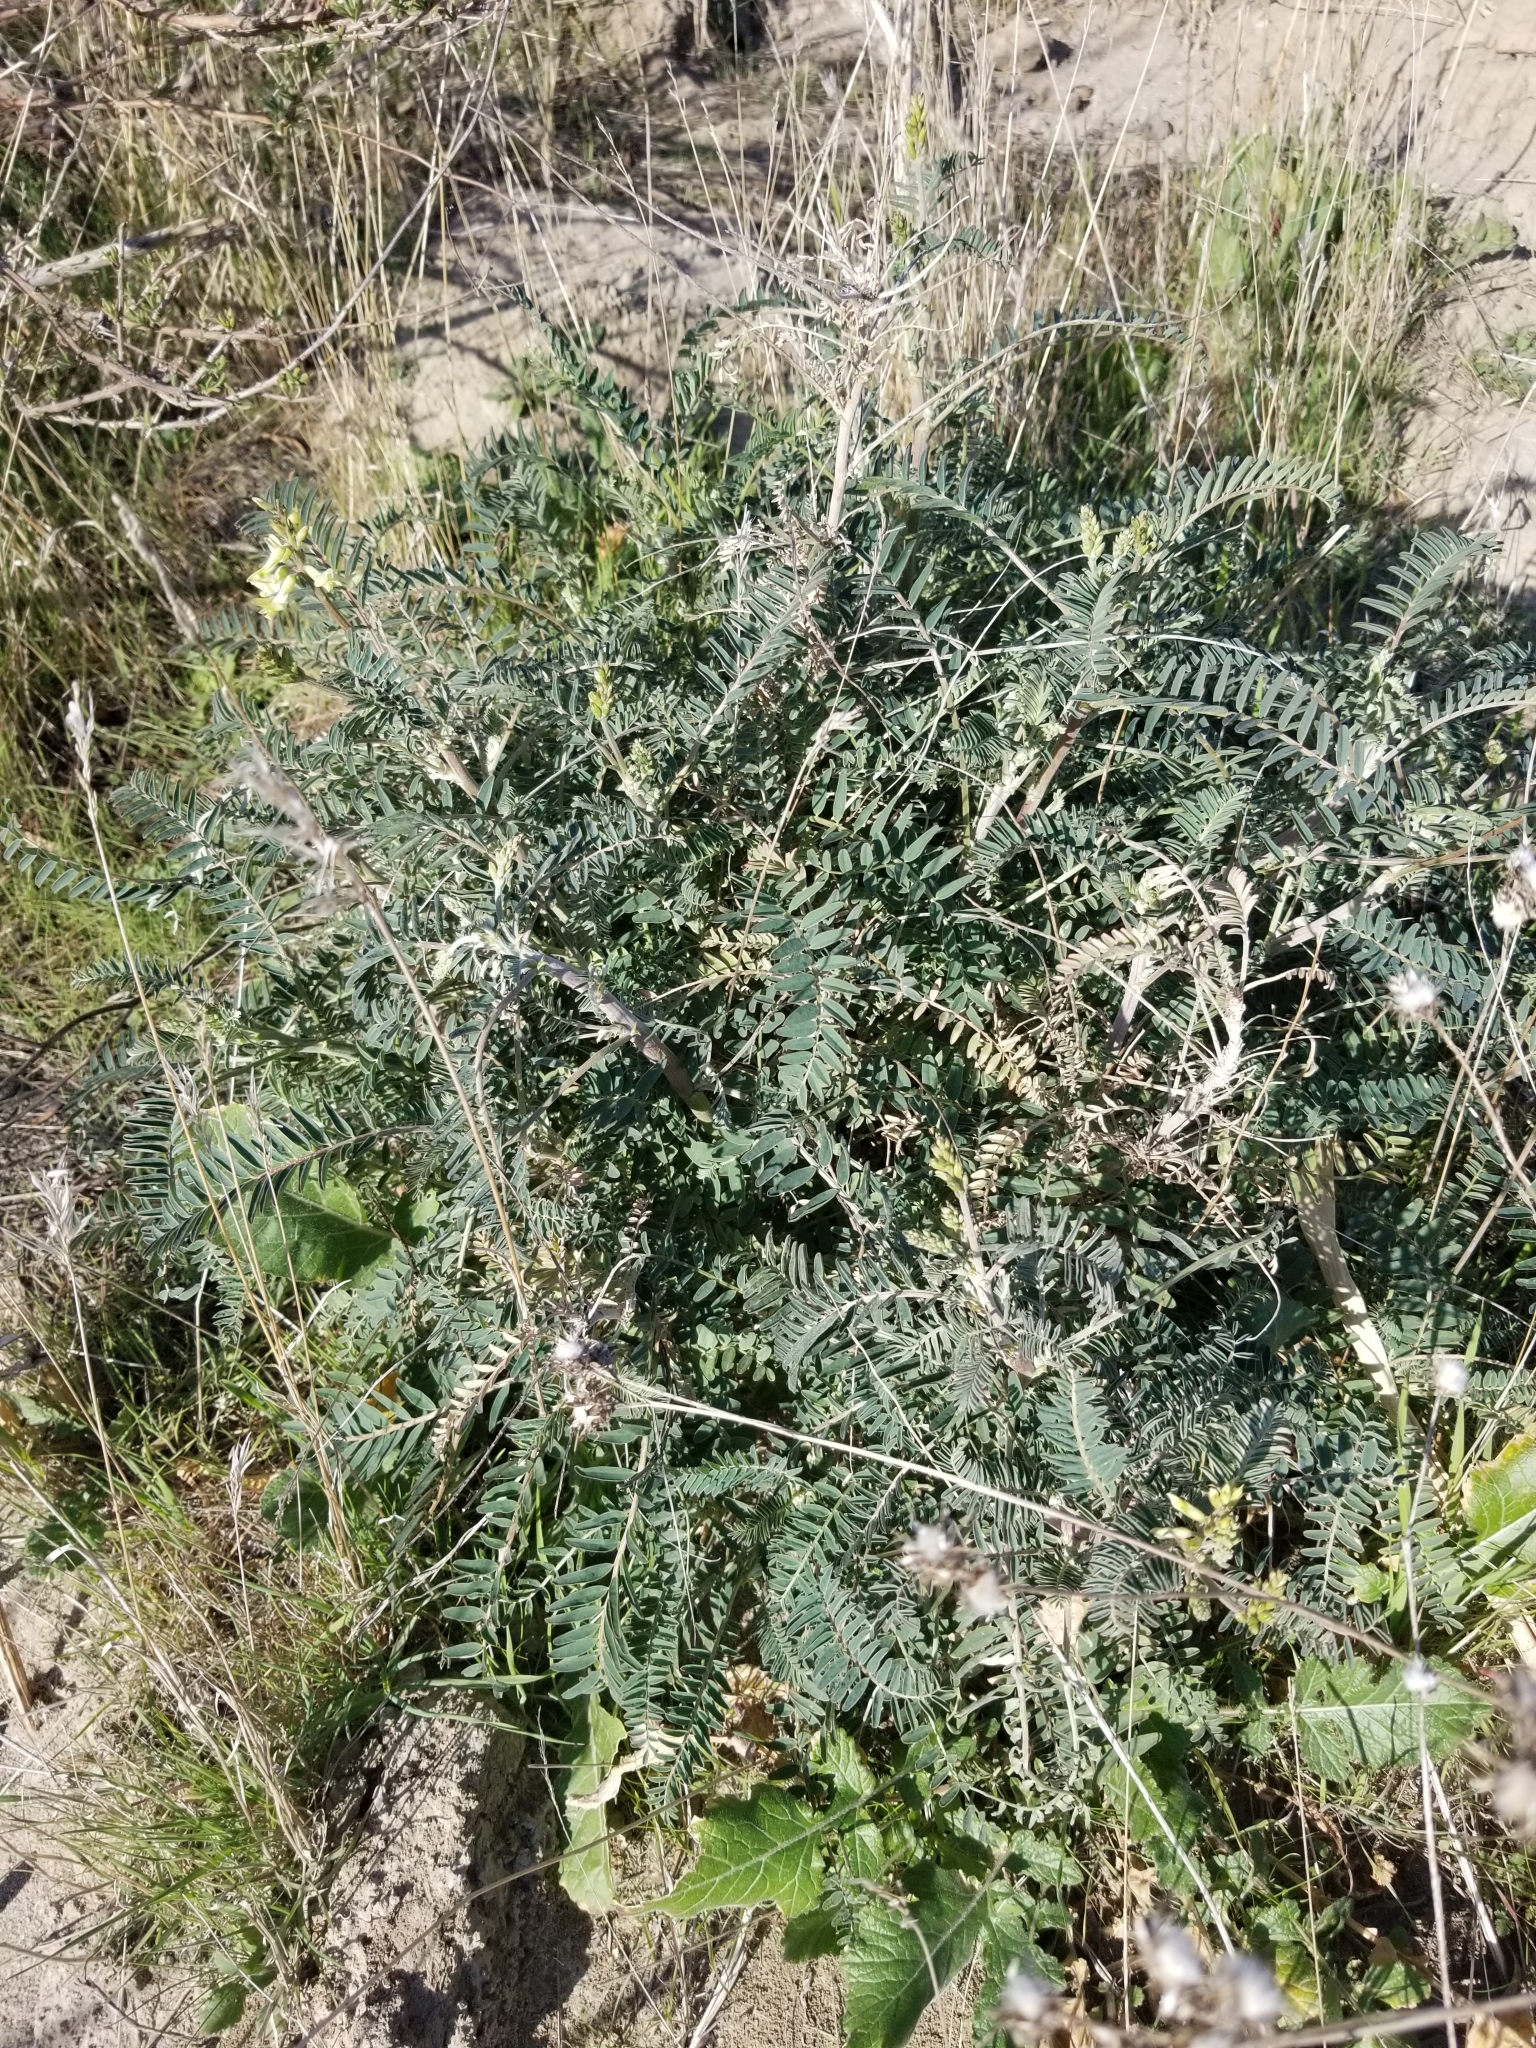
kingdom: Plantae
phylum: Tracheophyta
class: Magnoliopsida
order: Fabales
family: Fabaceae
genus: Astragalus
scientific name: Astragalus trichopodus
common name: Santa barbara milk-vetch
